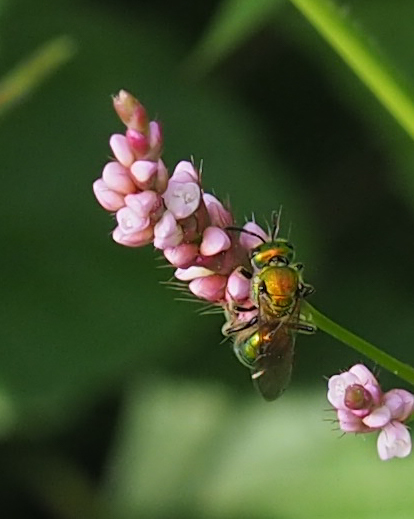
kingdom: Animalia
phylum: Arthropoda
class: Insecta
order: Hymenoptera
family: Halictidae
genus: Augochlora
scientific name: Augochlora pura
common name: Pure green sweat bee
